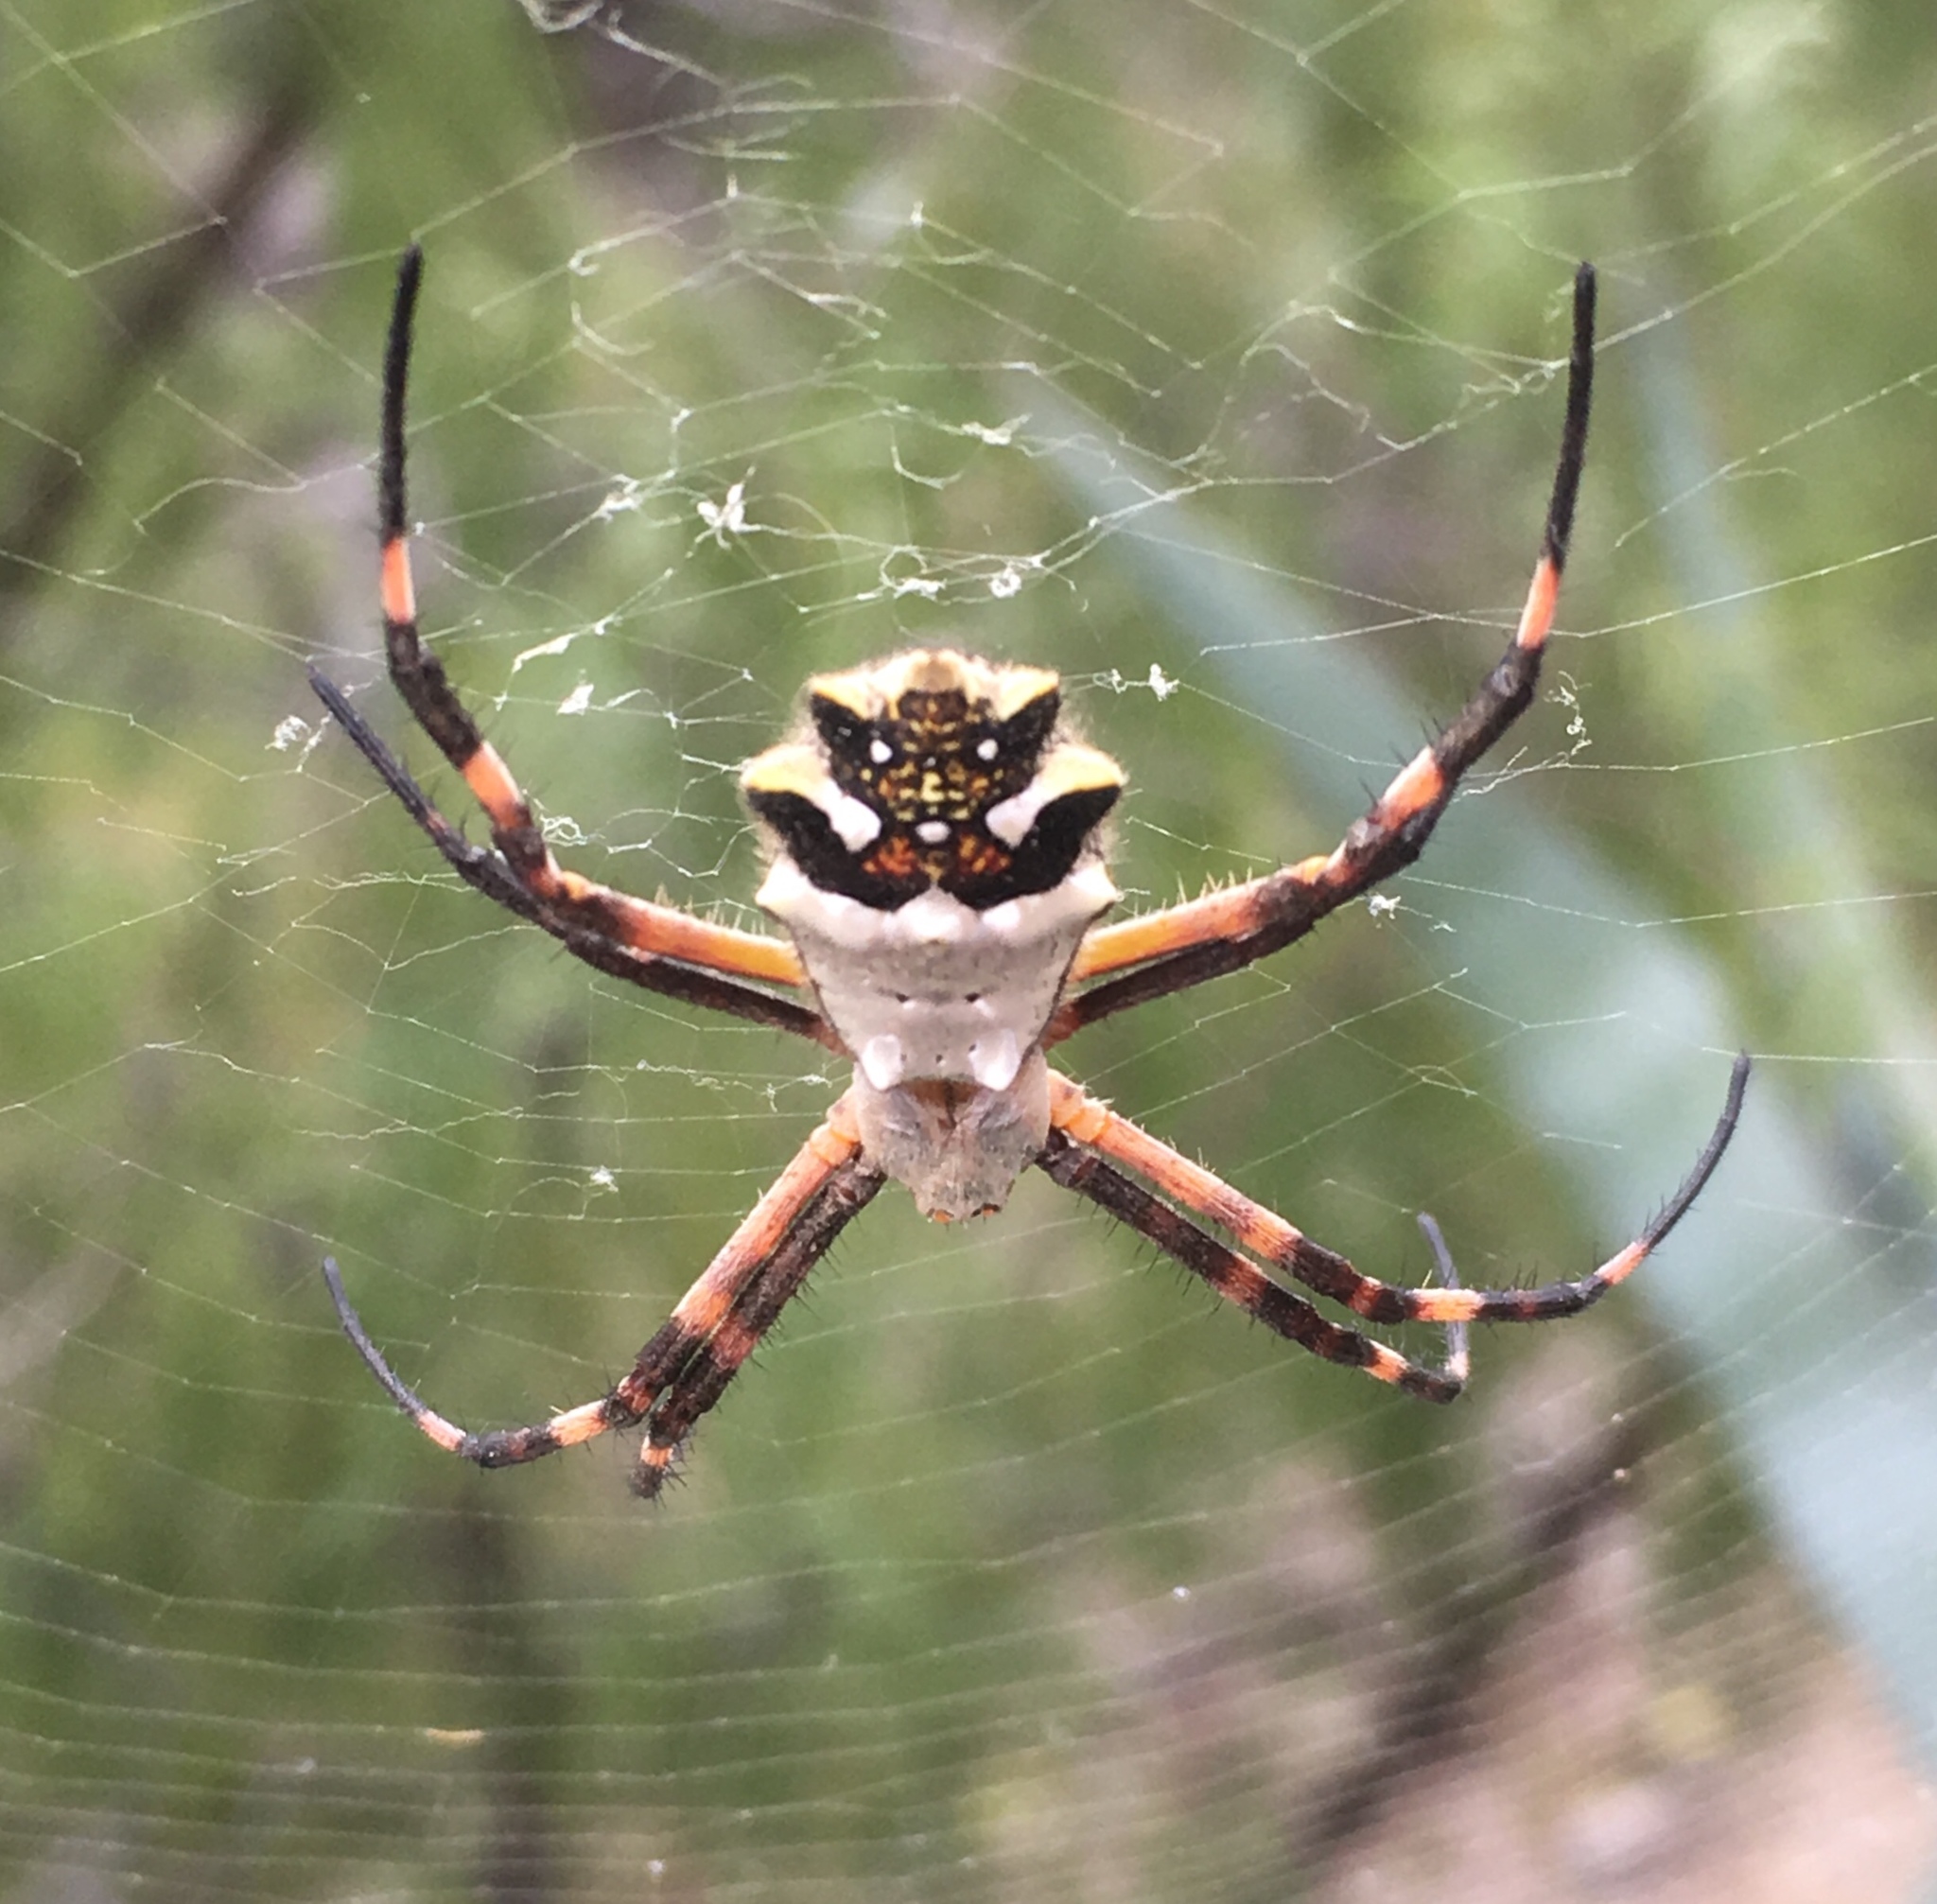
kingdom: Animalia
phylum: Arthropoda
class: Arachnida
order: Araneae
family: Araneidae
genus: Argiope
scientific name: Argiope argentata
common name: Orb weavers
